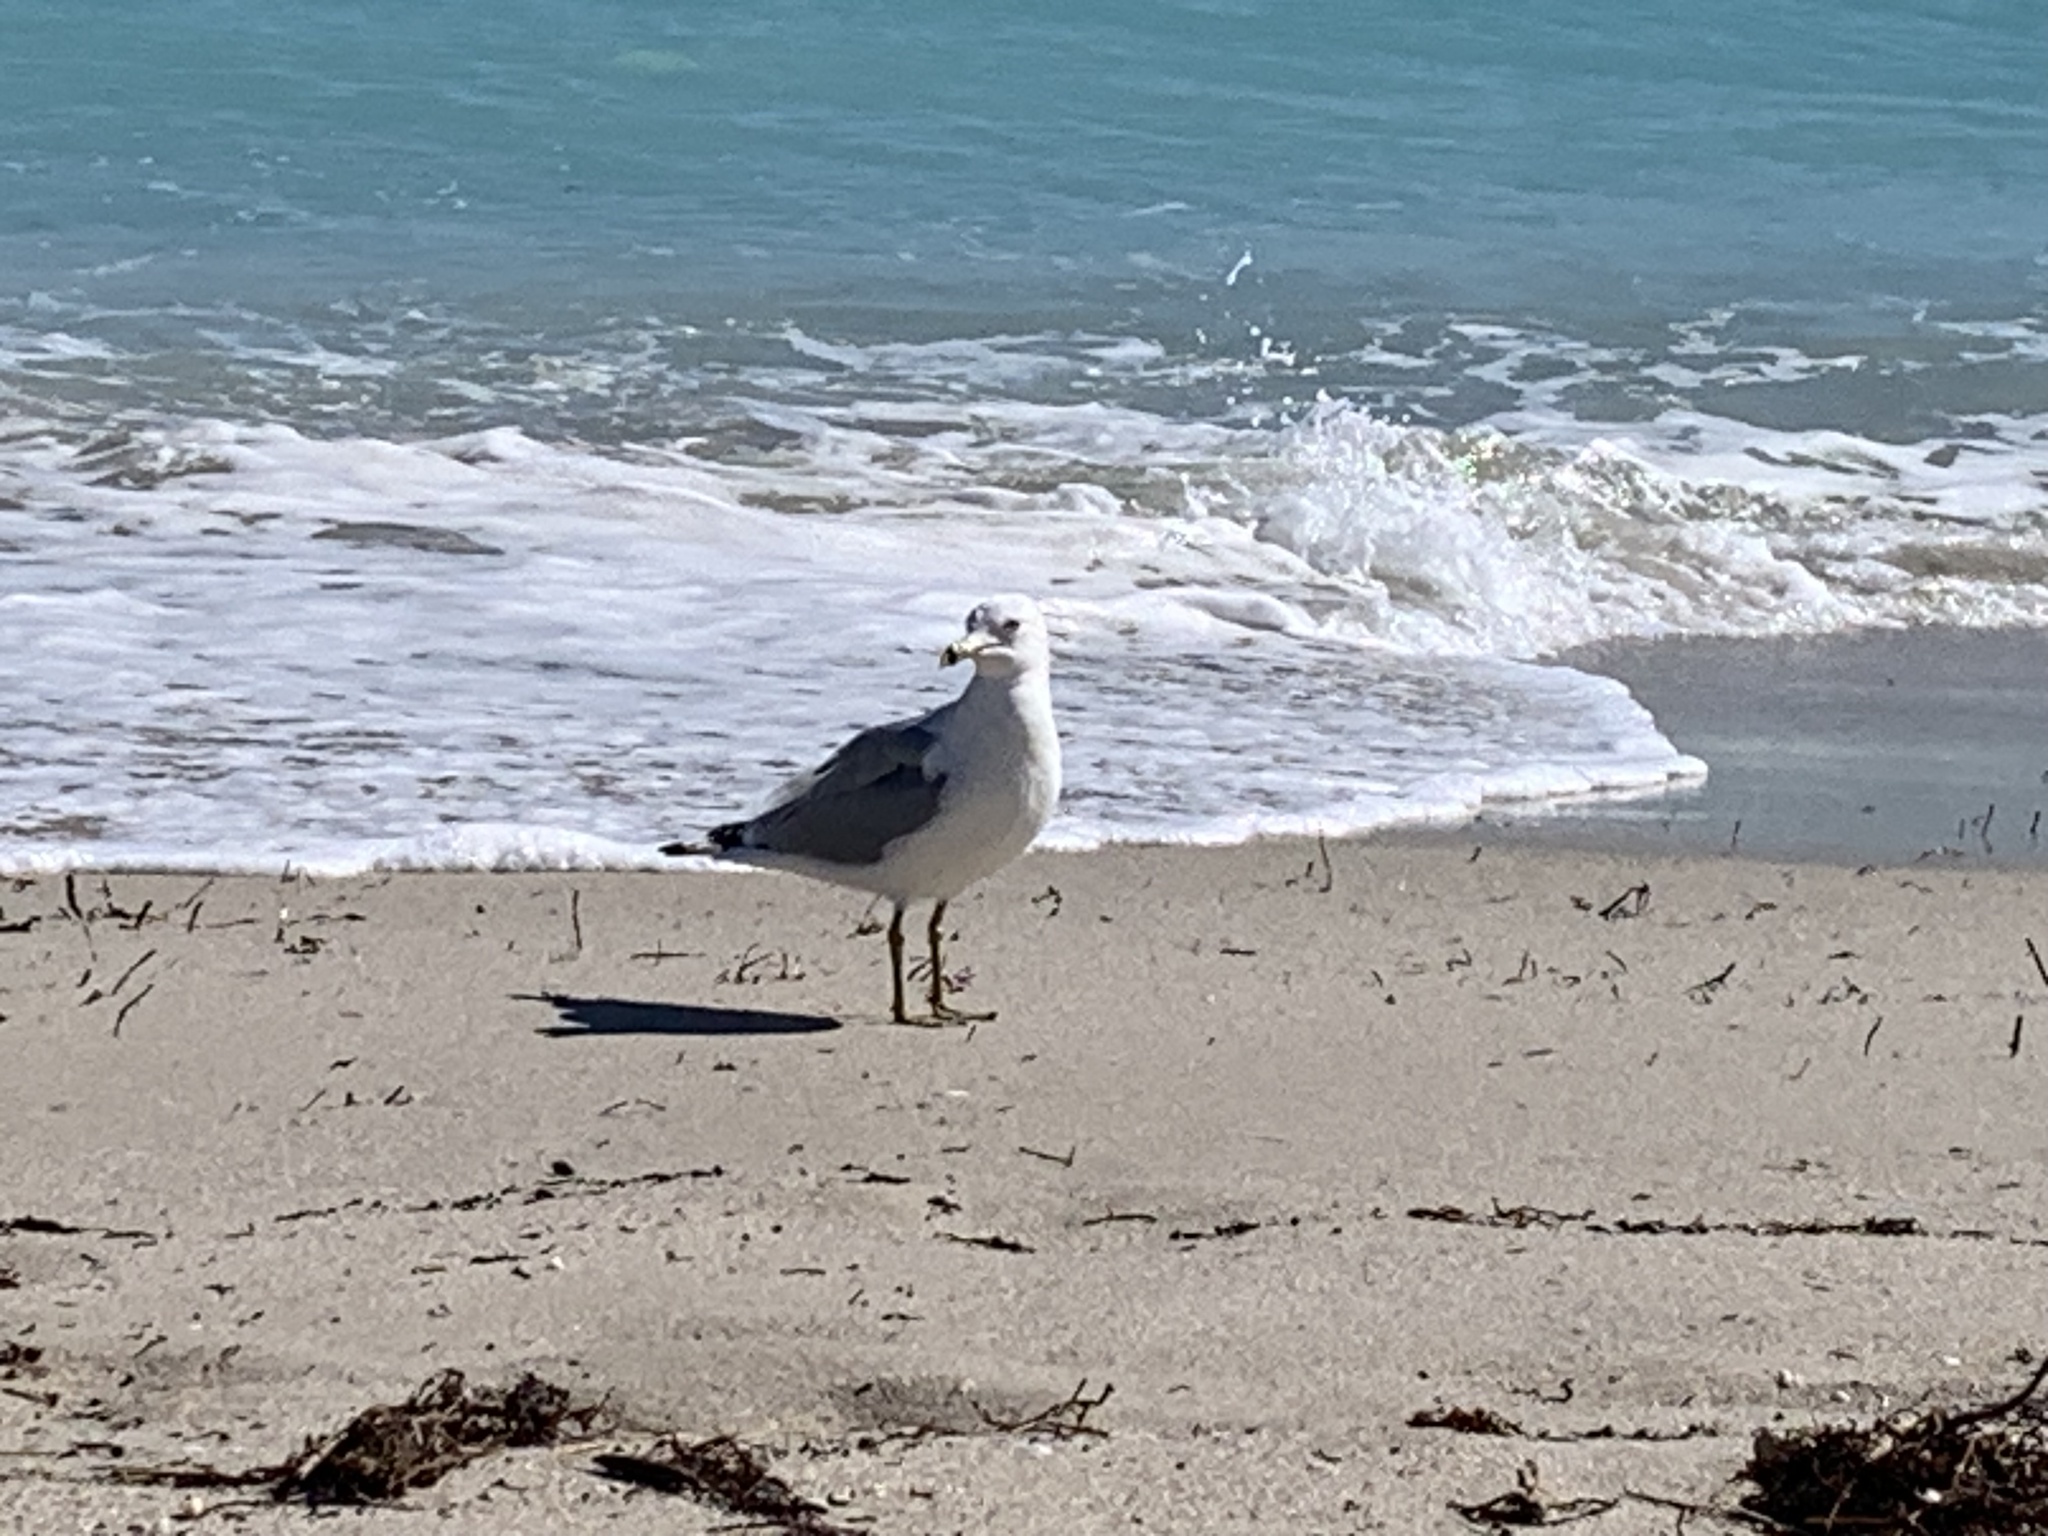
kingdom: Animalia
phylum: Chordata
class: Aves
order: Charadriiformes
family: Laridae
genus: Larus
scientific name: Larus delawarensis
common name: Ring-billed gull
